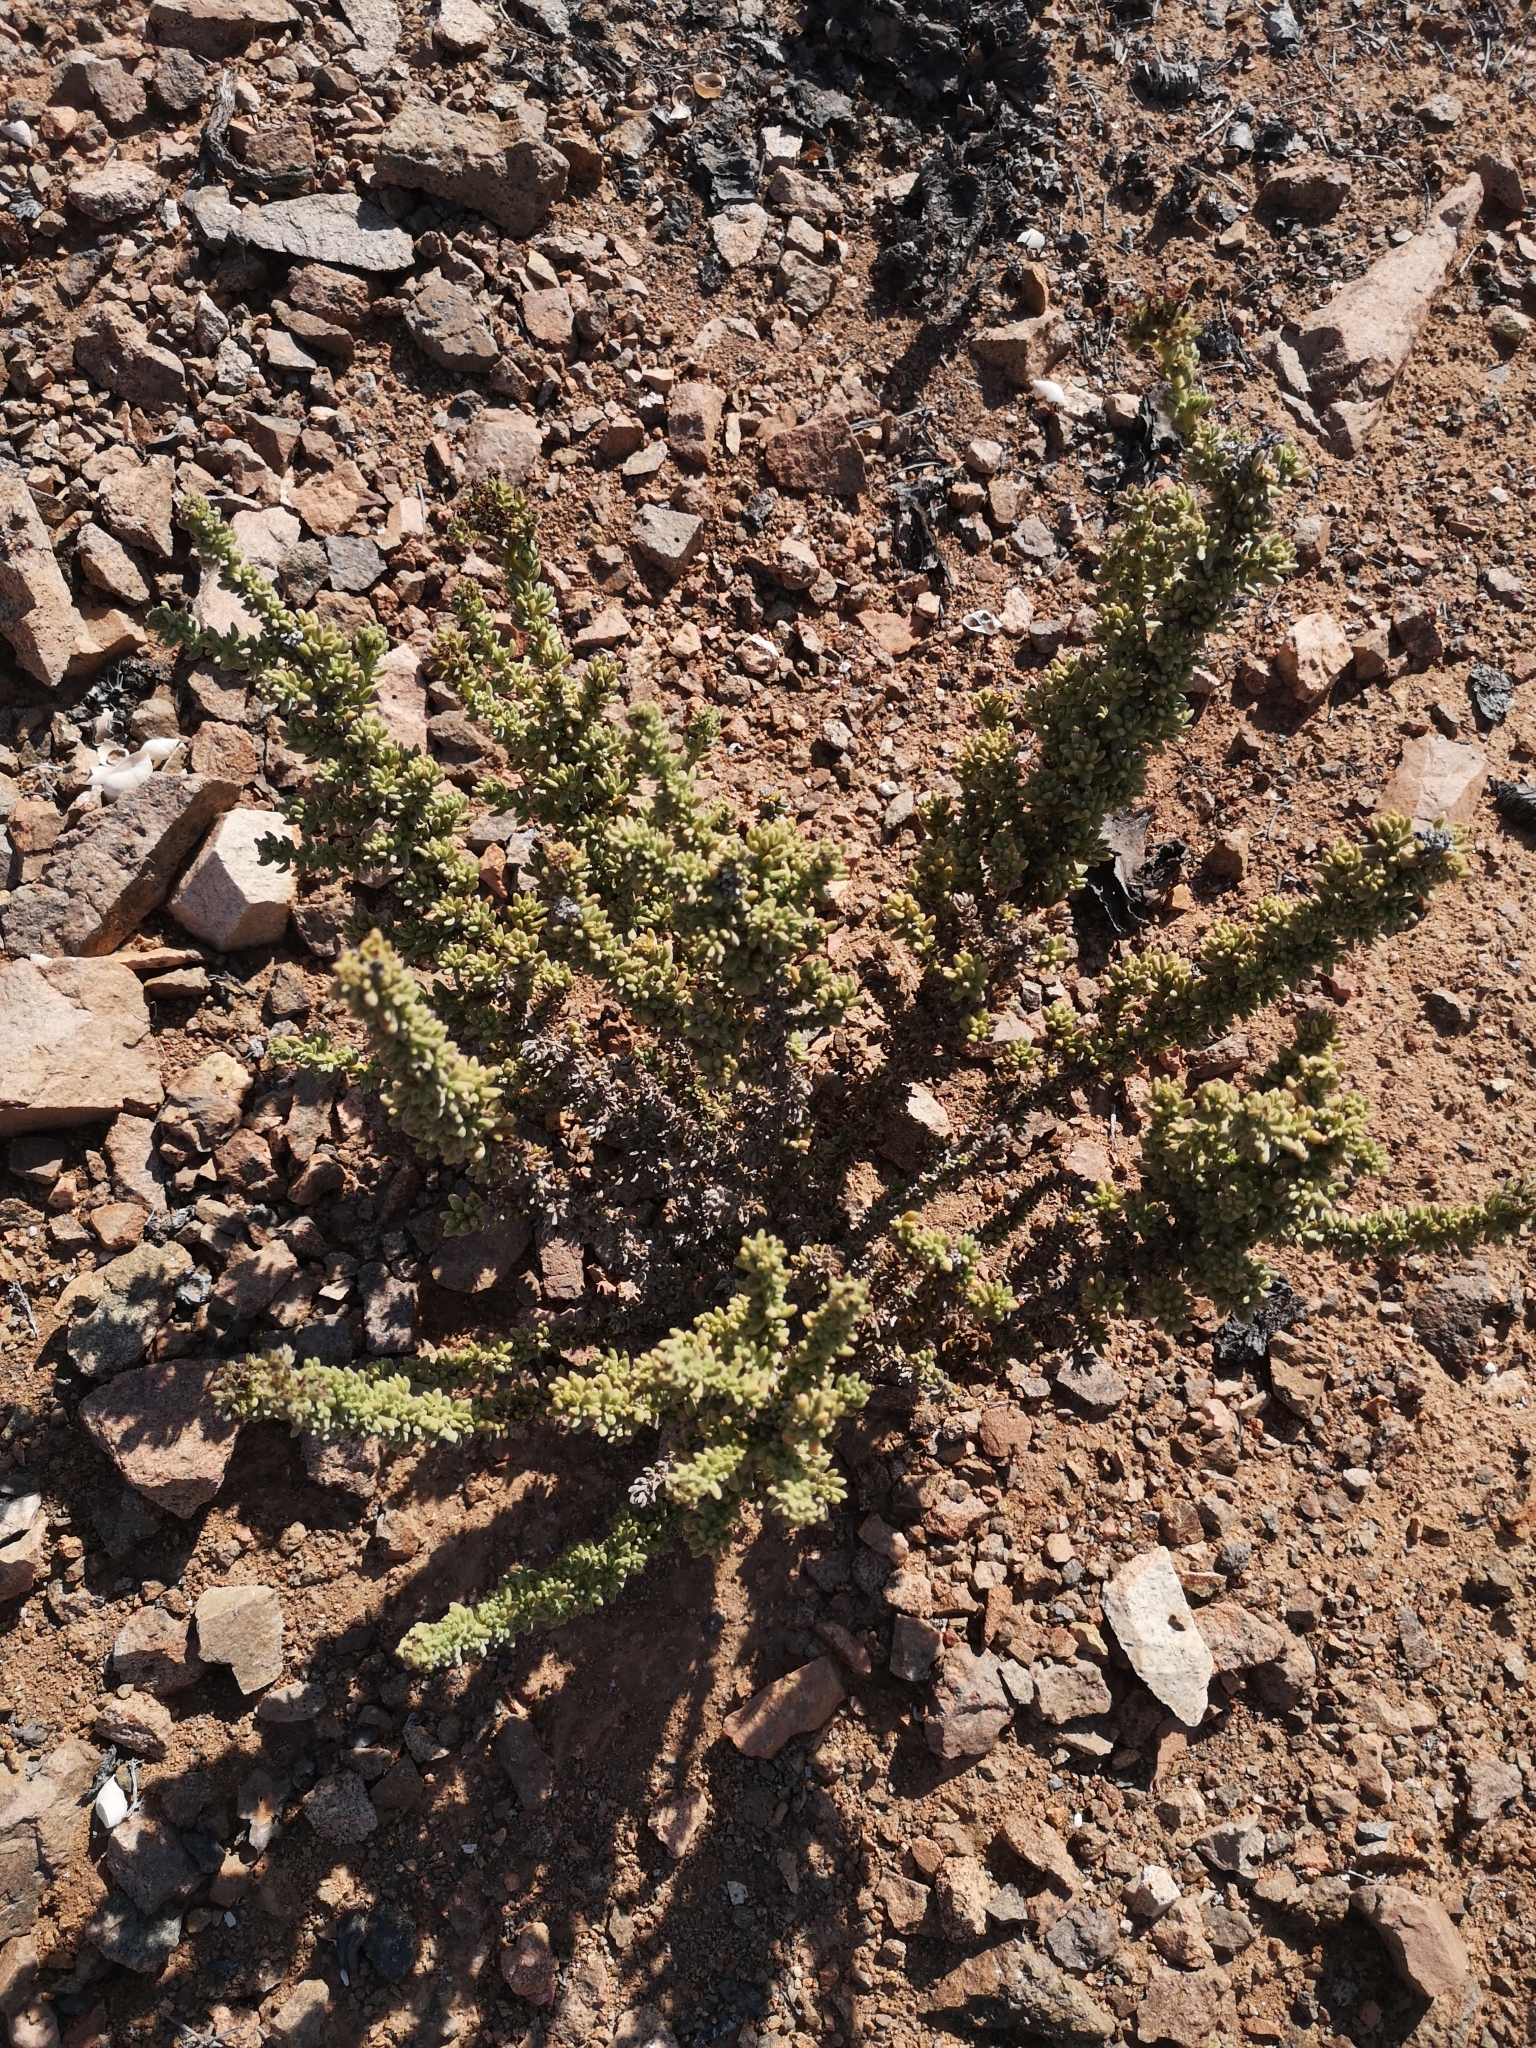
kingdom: Plantae
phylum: Tracheophyta
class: Magnoliopsida
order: Boraginales
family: Heliotropiaceae
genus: Heliotropium
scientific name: Heliotropium pycnophyllum
